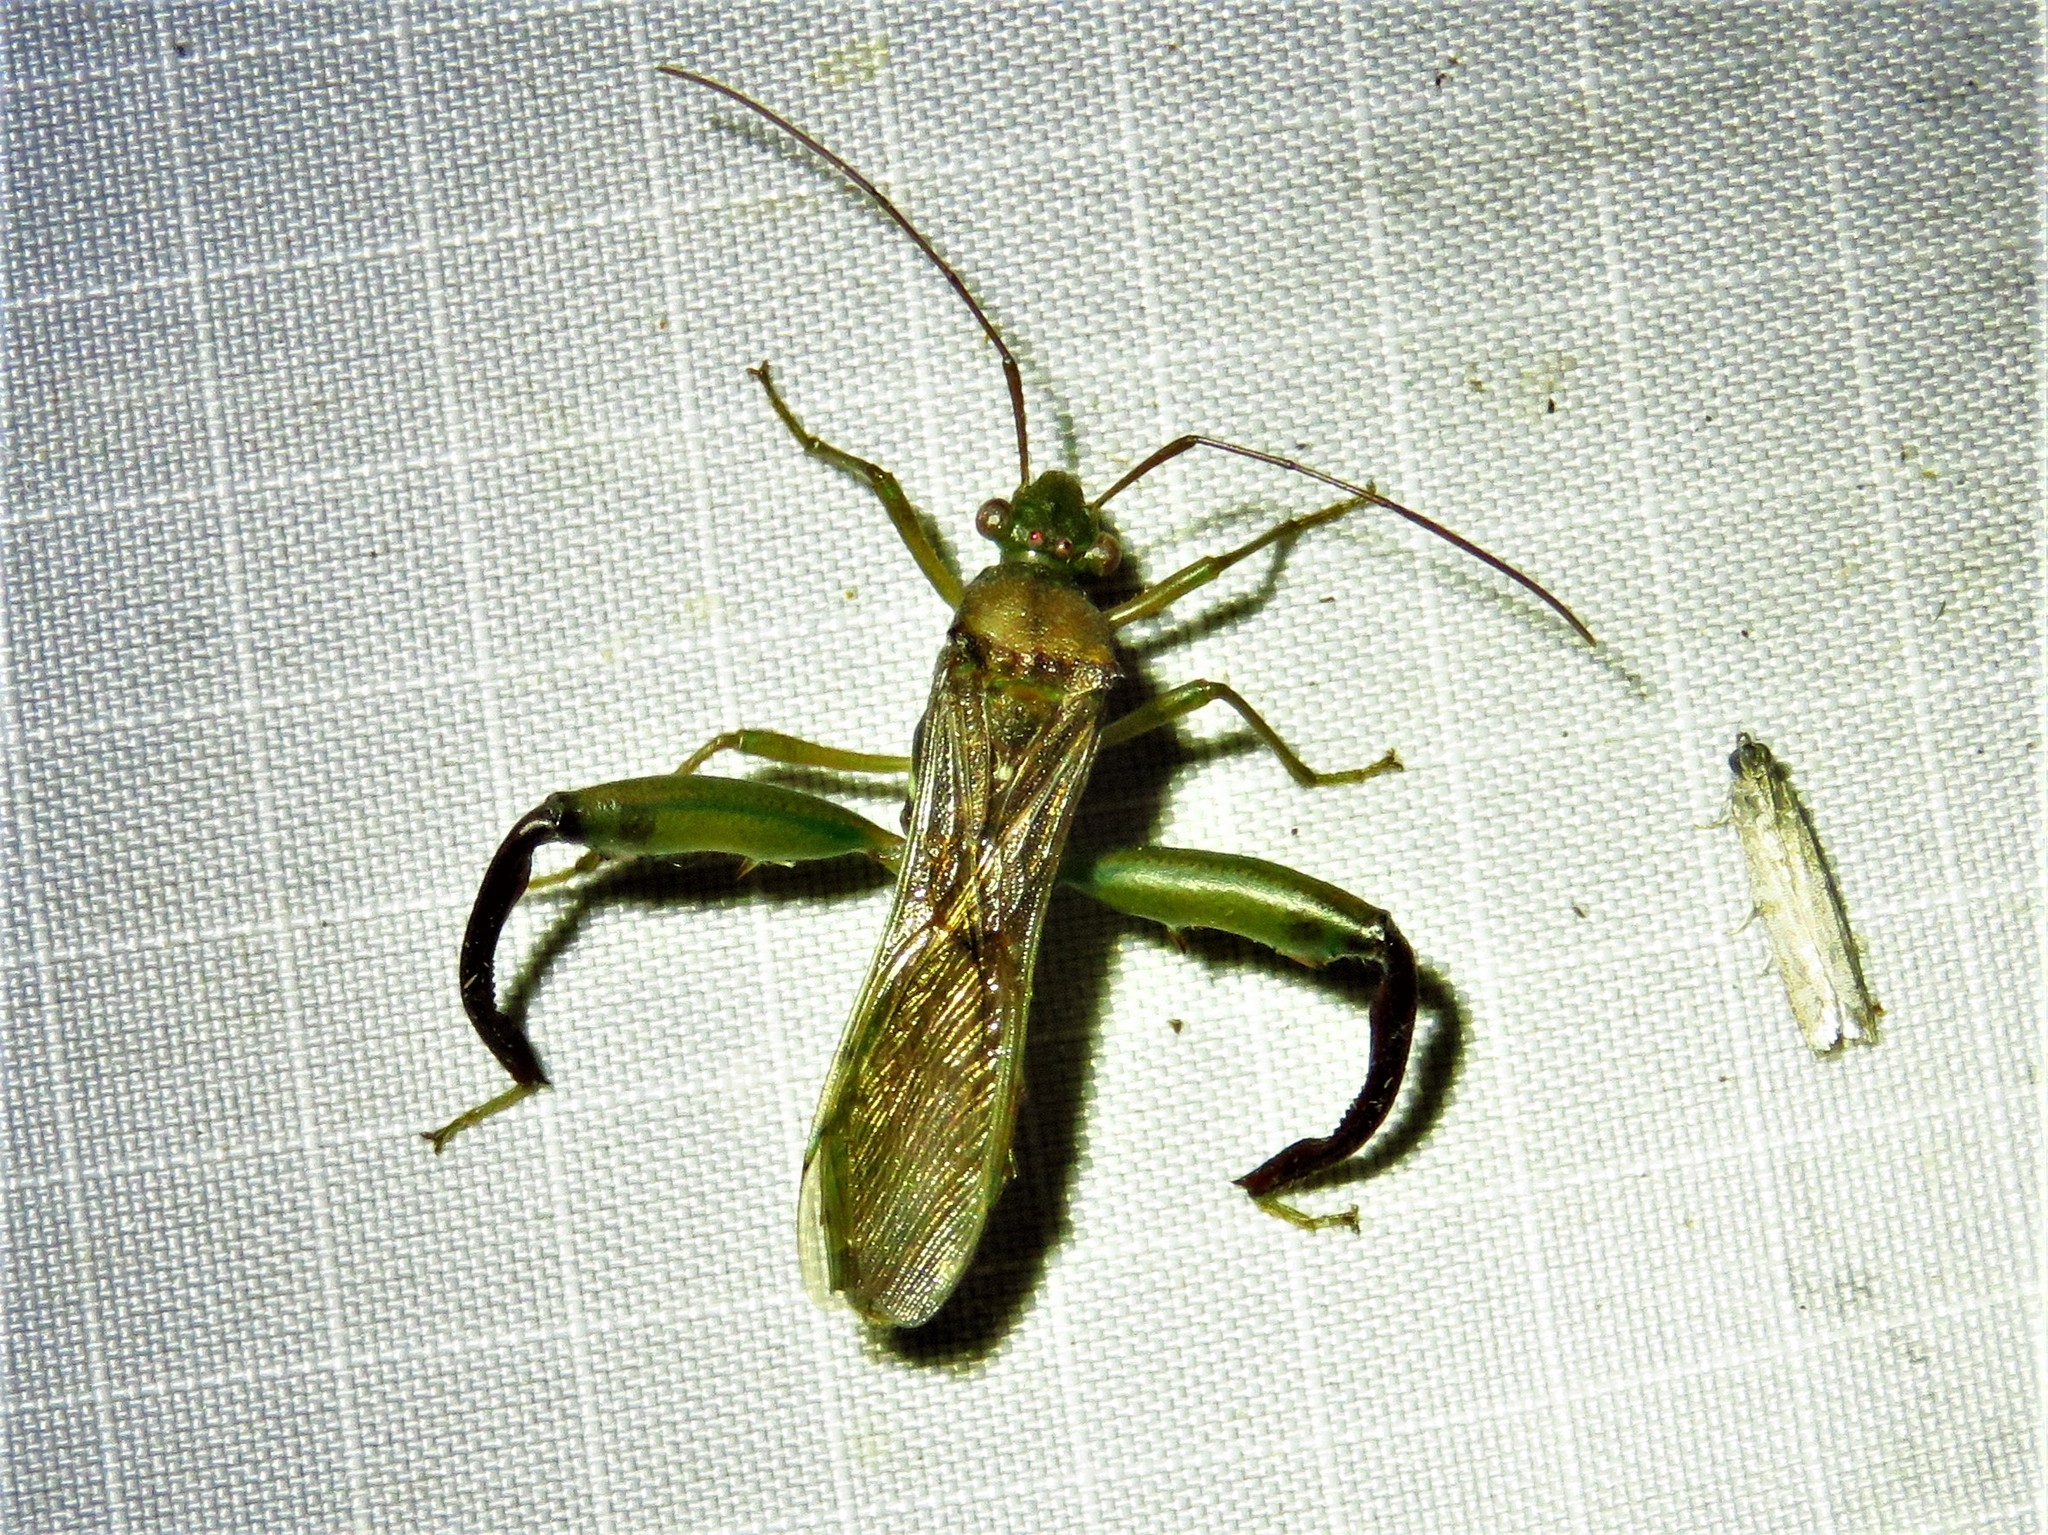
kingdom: Animalia
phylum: Arthropoda
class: Insecta
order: Hemiptera
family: Alydidae
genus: Hyalymenus
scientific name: Hyalymenus tarsatus
